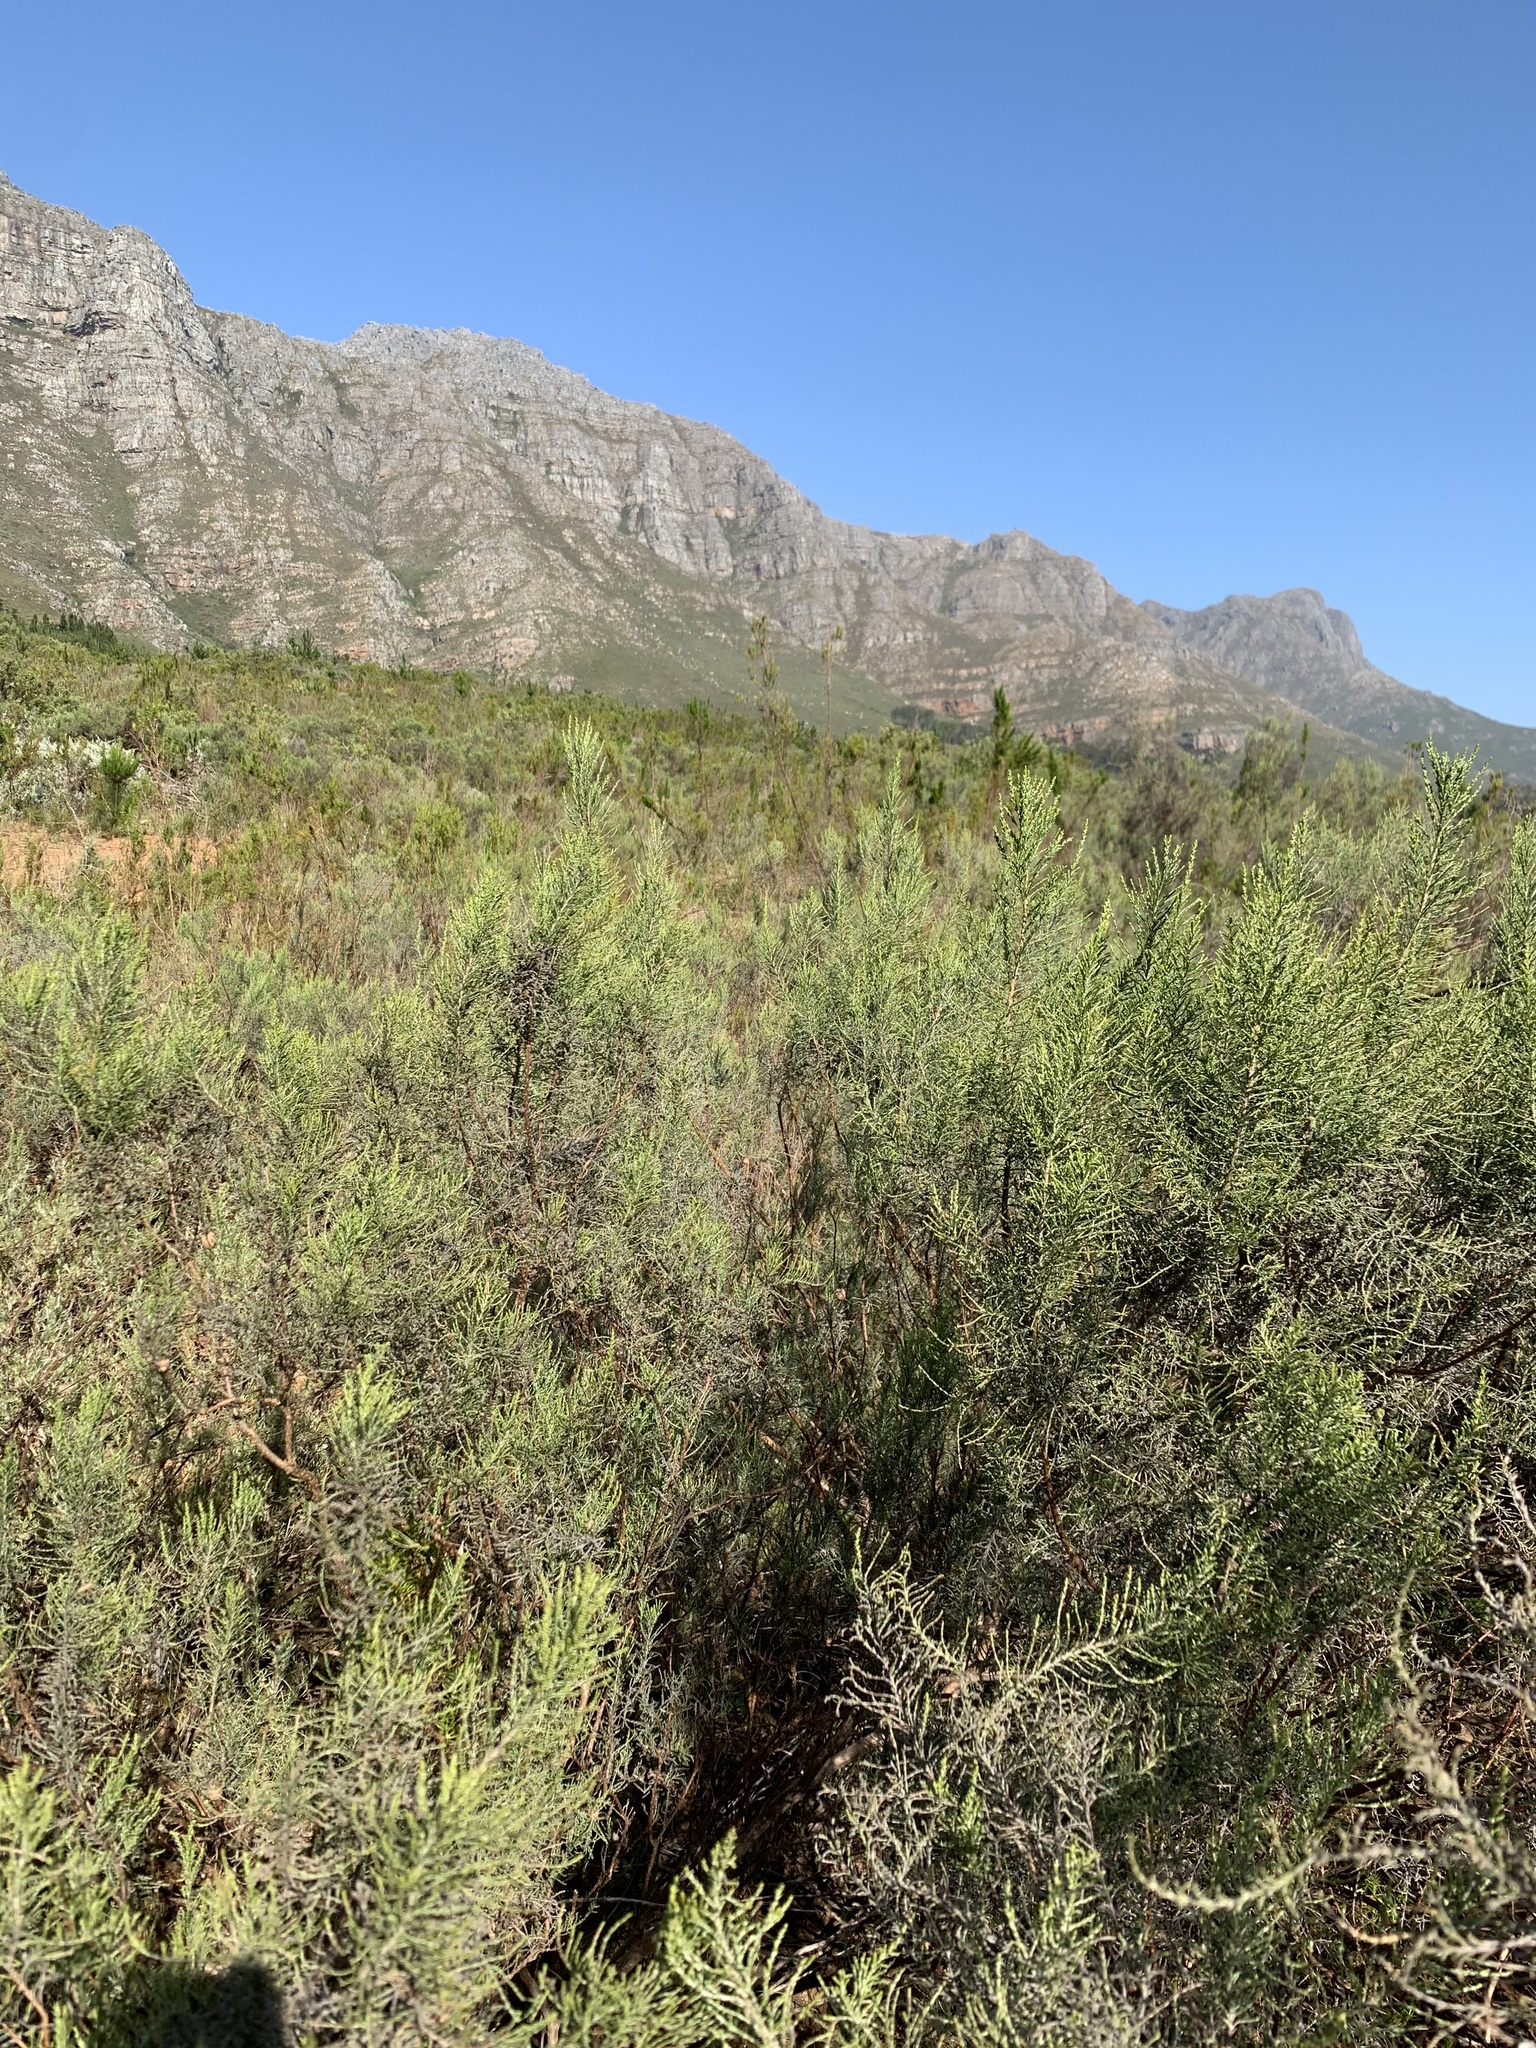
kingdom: Plantae
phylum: Tracheophyta
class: Magnoliopsida
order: Asterales
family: Asteraceae
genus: Dicerothamnus
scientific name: Dicerothamnus rhinocerotis
